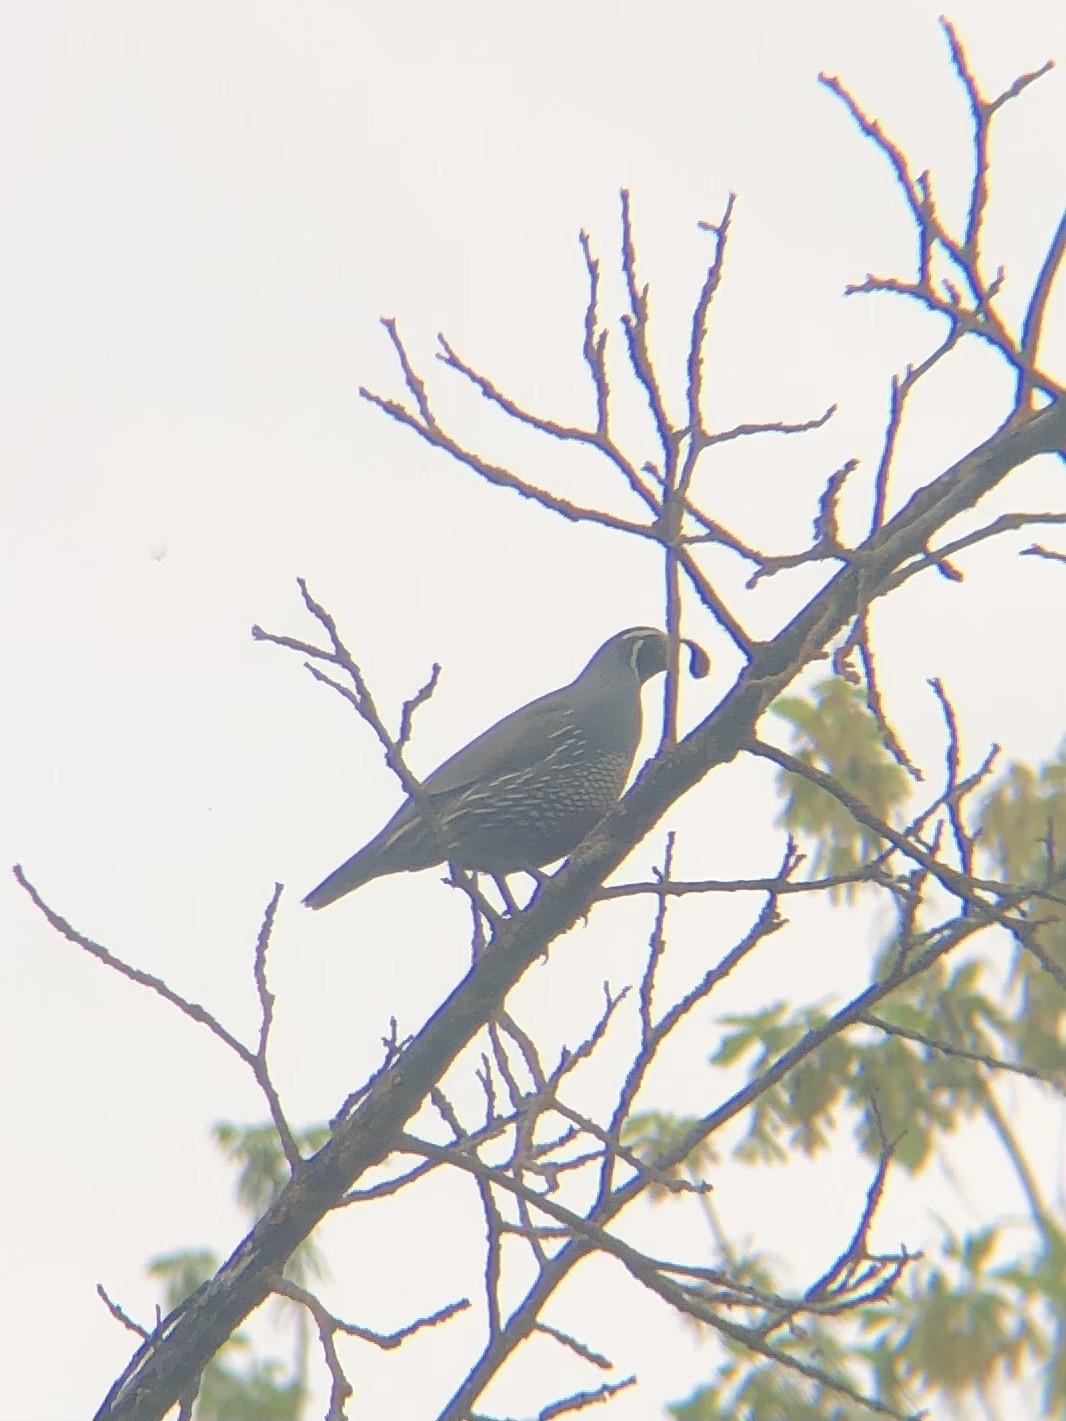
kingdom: Animalia
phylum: Chordata
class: Aves
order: Galliformes
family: Odontophoridae
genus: Callipepla
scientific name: Callipepla californica
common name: California quail
